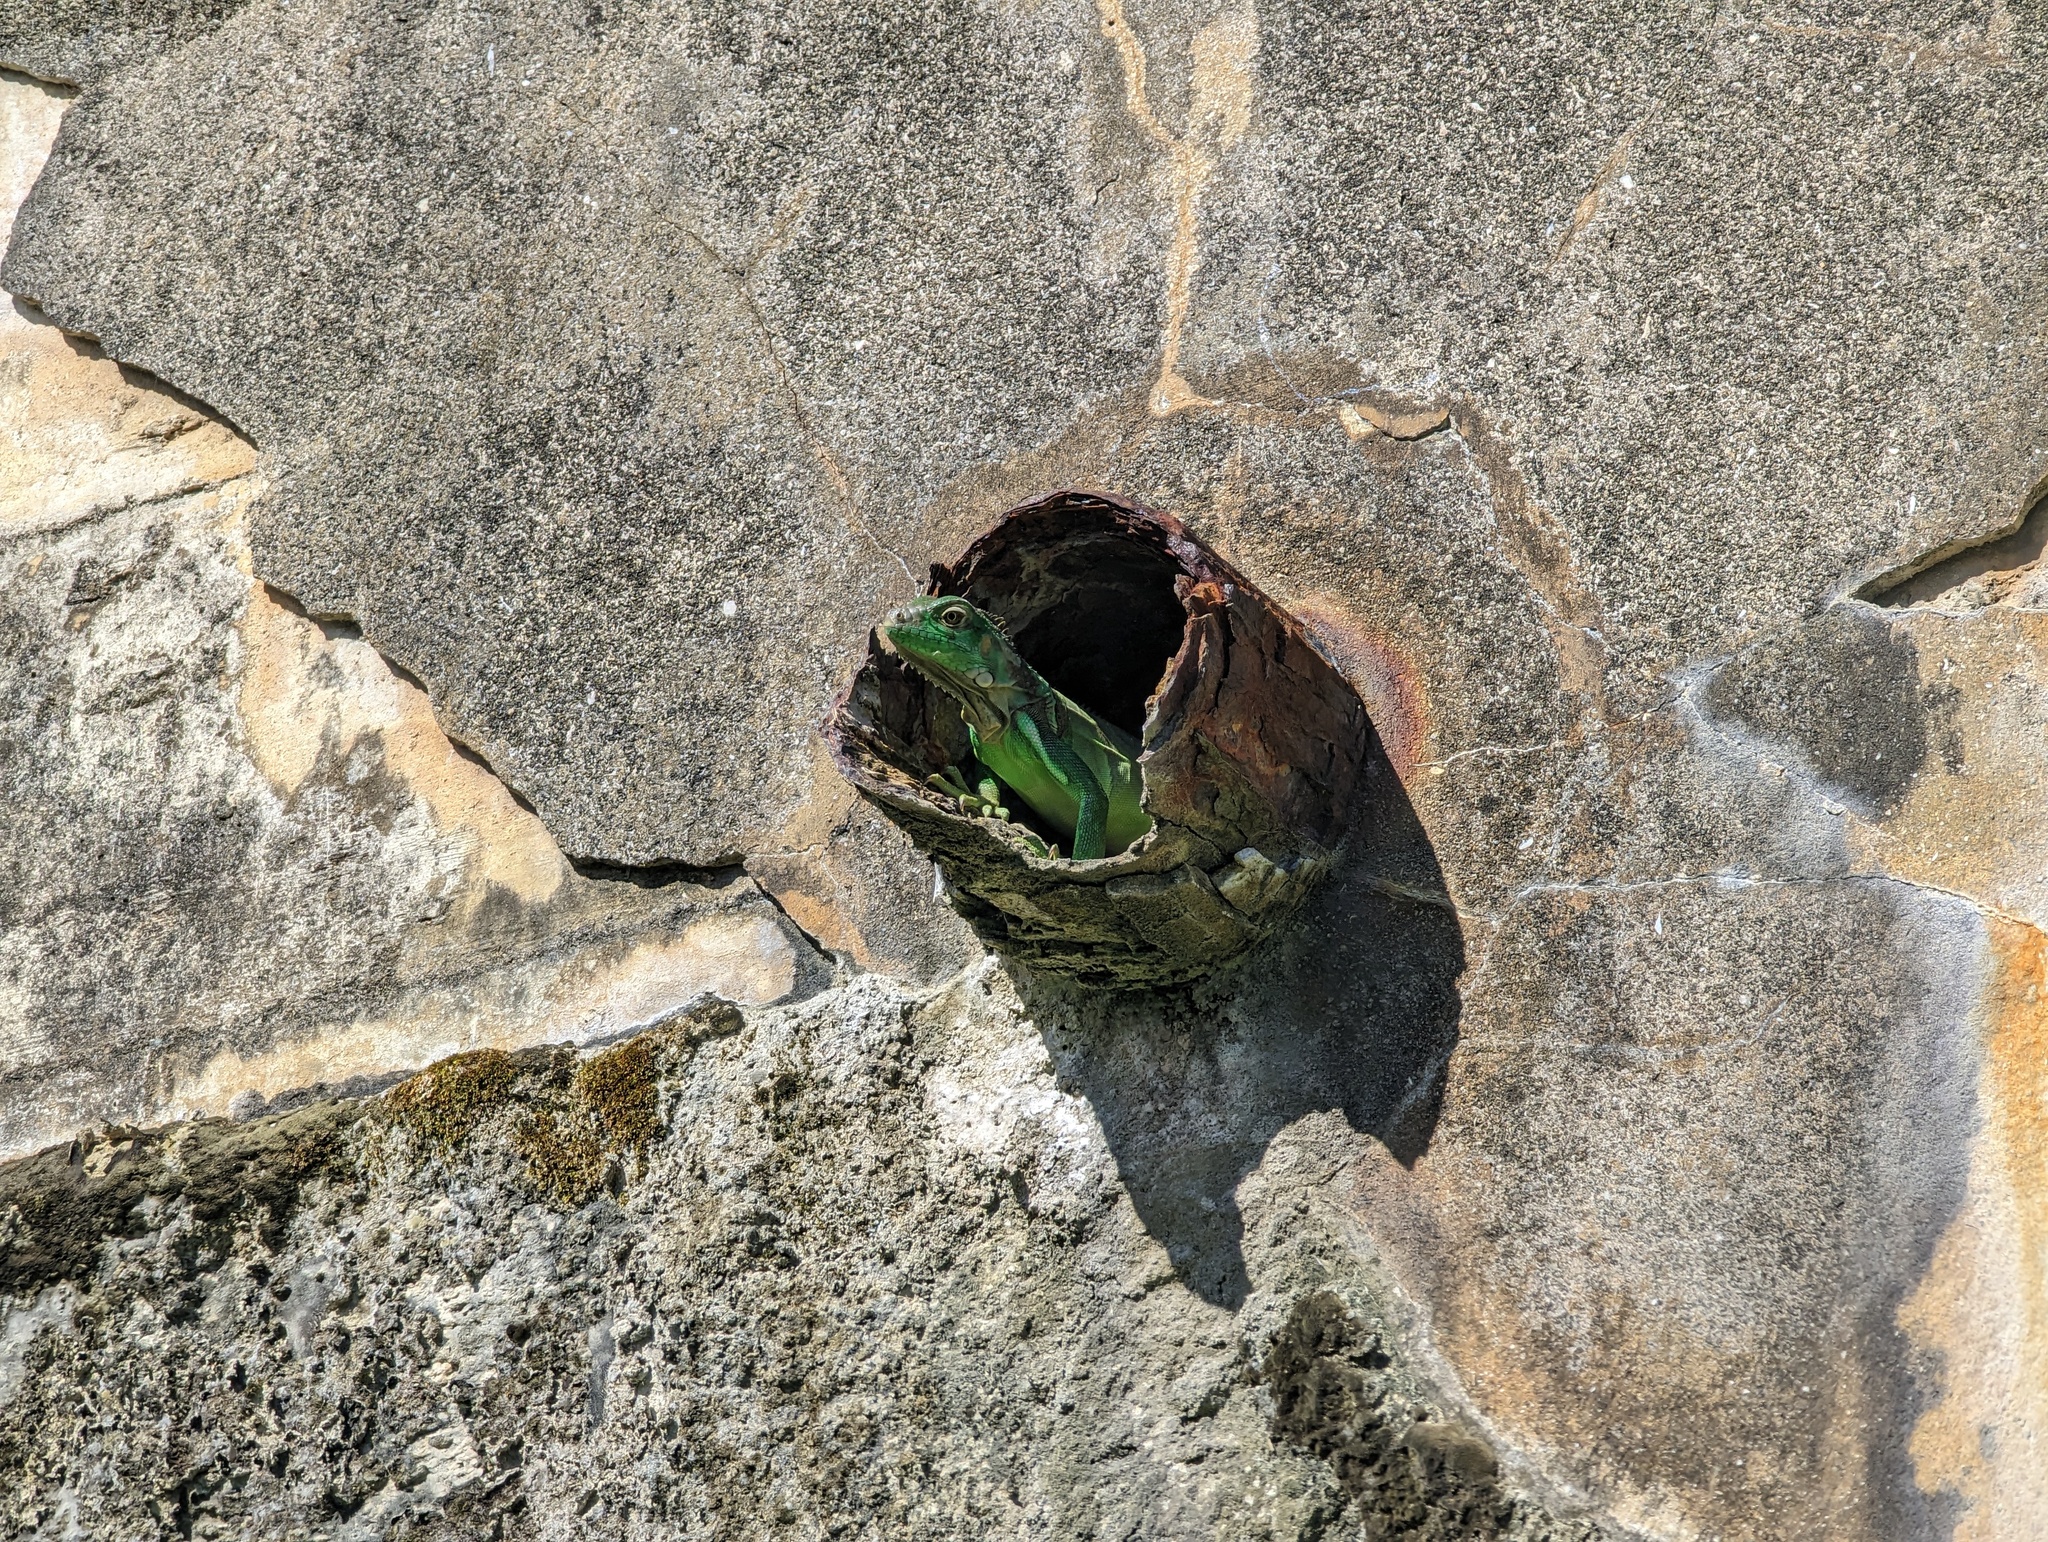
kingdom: Animalia
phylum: Chordata
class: Squamata
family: Iguanidae
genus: Iguana
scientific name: Iguana iguana
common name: Green iguana
